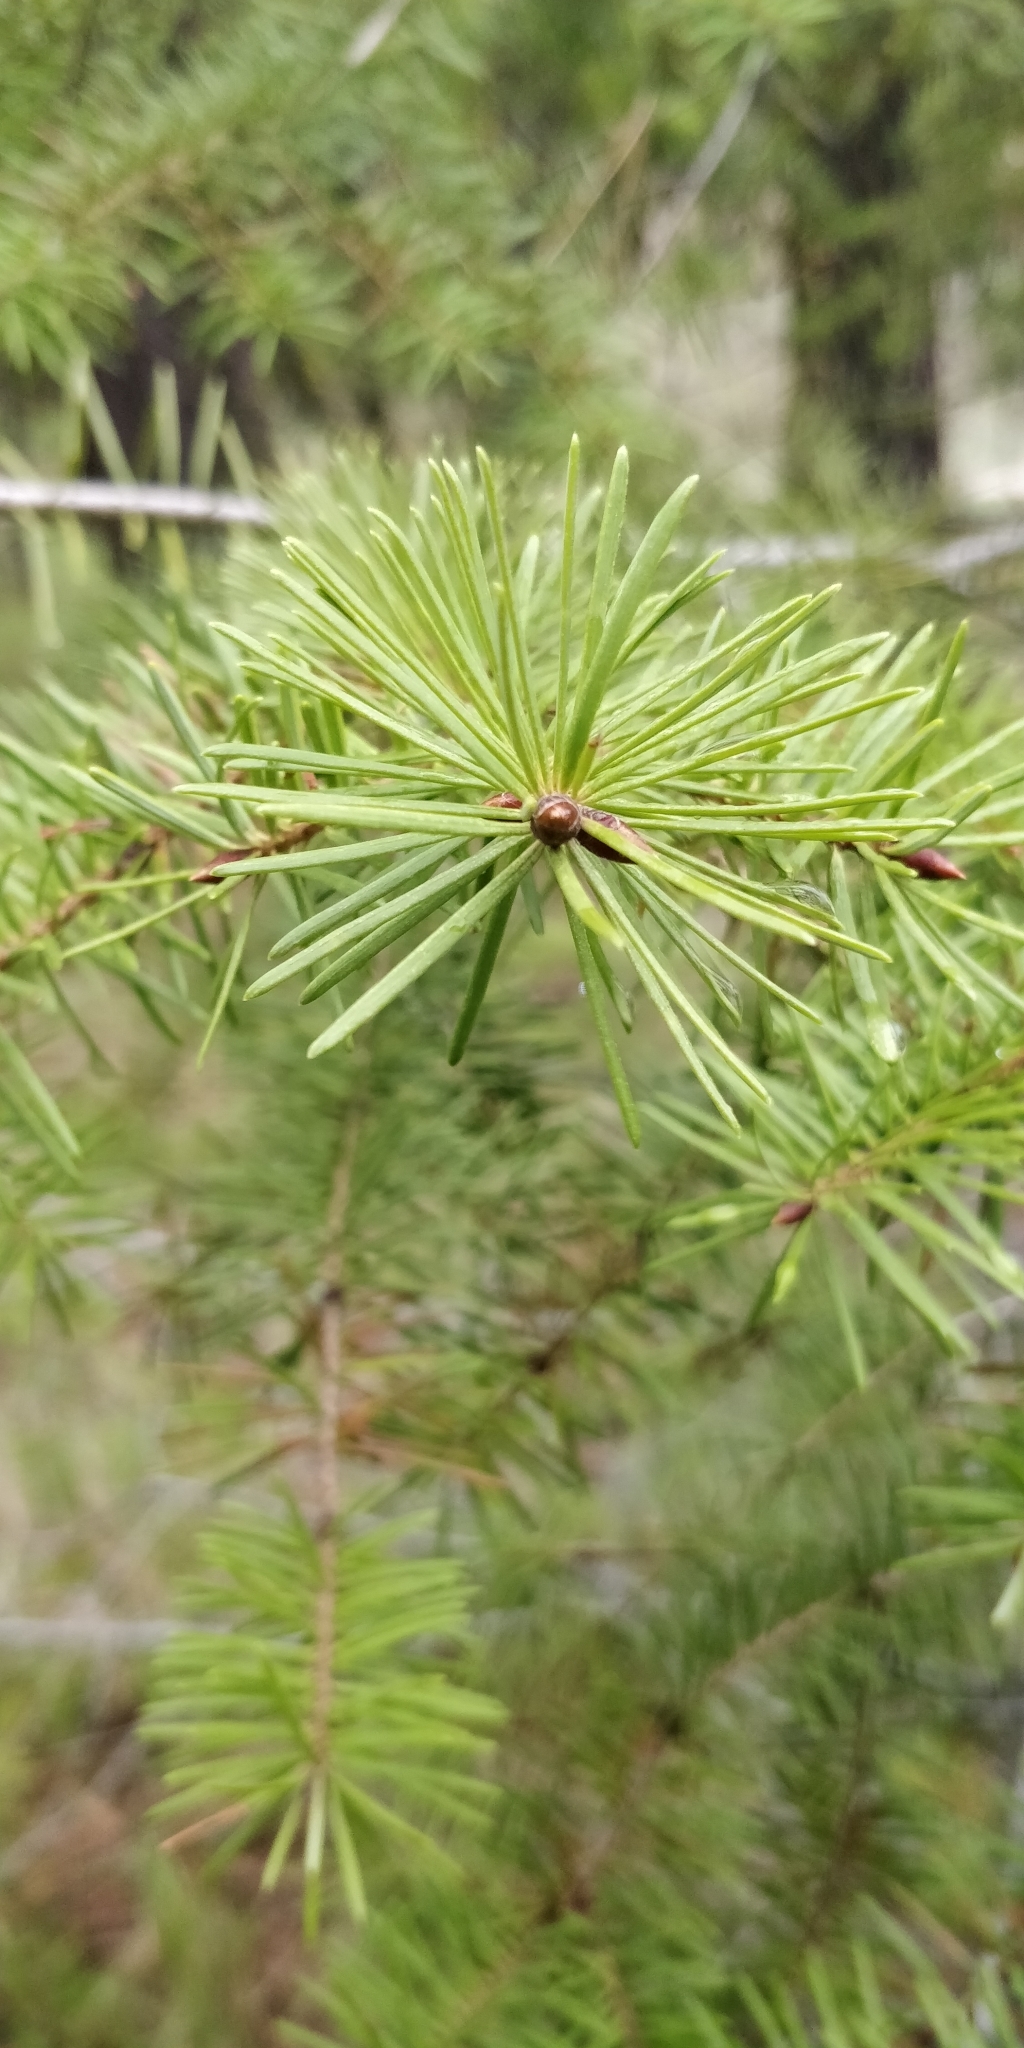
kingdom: Plantae
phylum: Tracheophyta
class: Pinopsida
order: Pinales
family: Pinaceae
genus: Pseudotsuga
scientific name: Pseudotsuga menziesii
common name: Douglas fir
